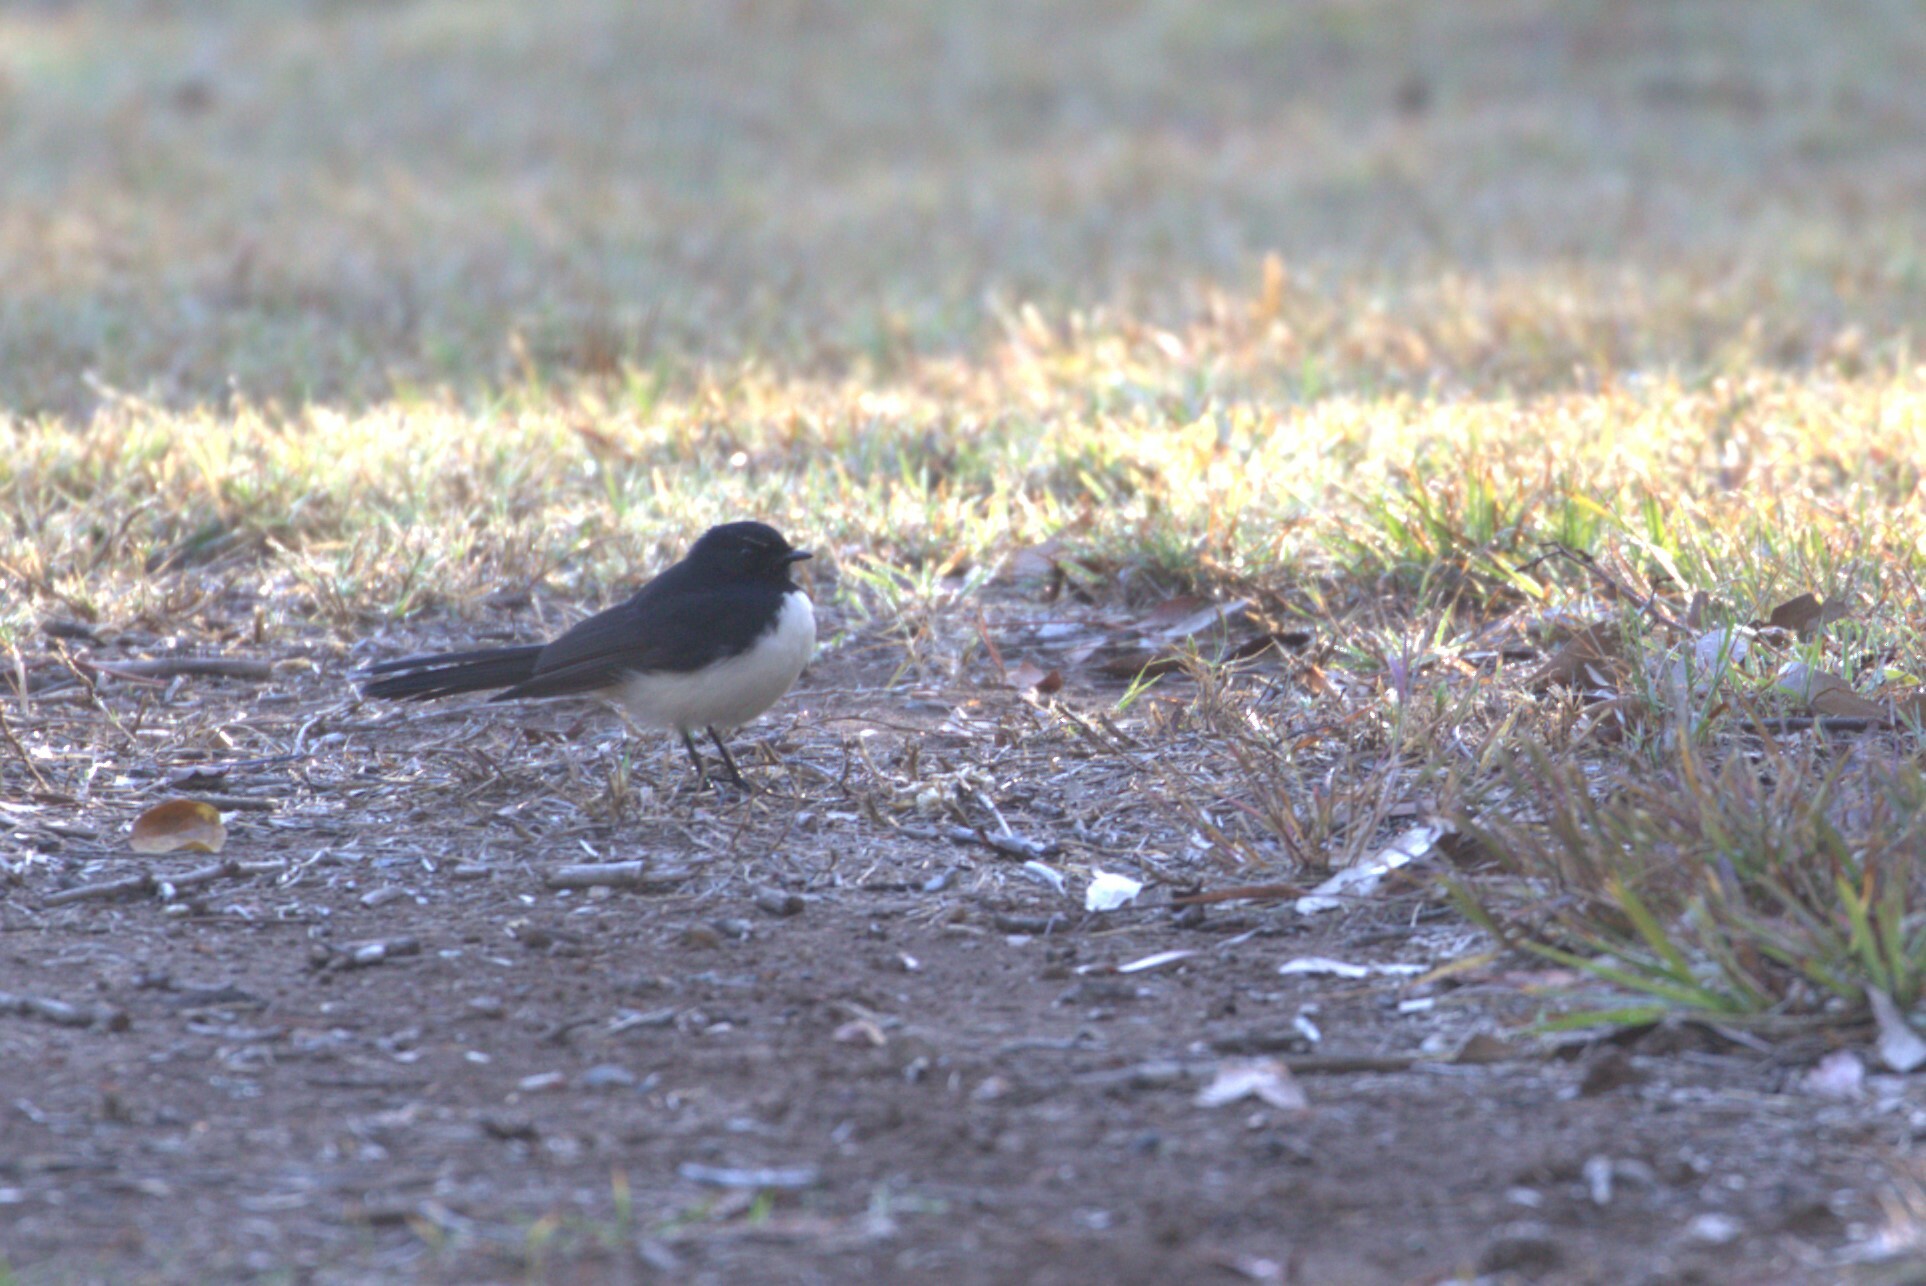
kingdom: Animalia
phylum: Chordata
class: Aves
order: Passeriformes
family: Rhipiduridae
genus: Rhipidura
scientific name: Rhipidura leucophrys
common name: Willie wagtail
